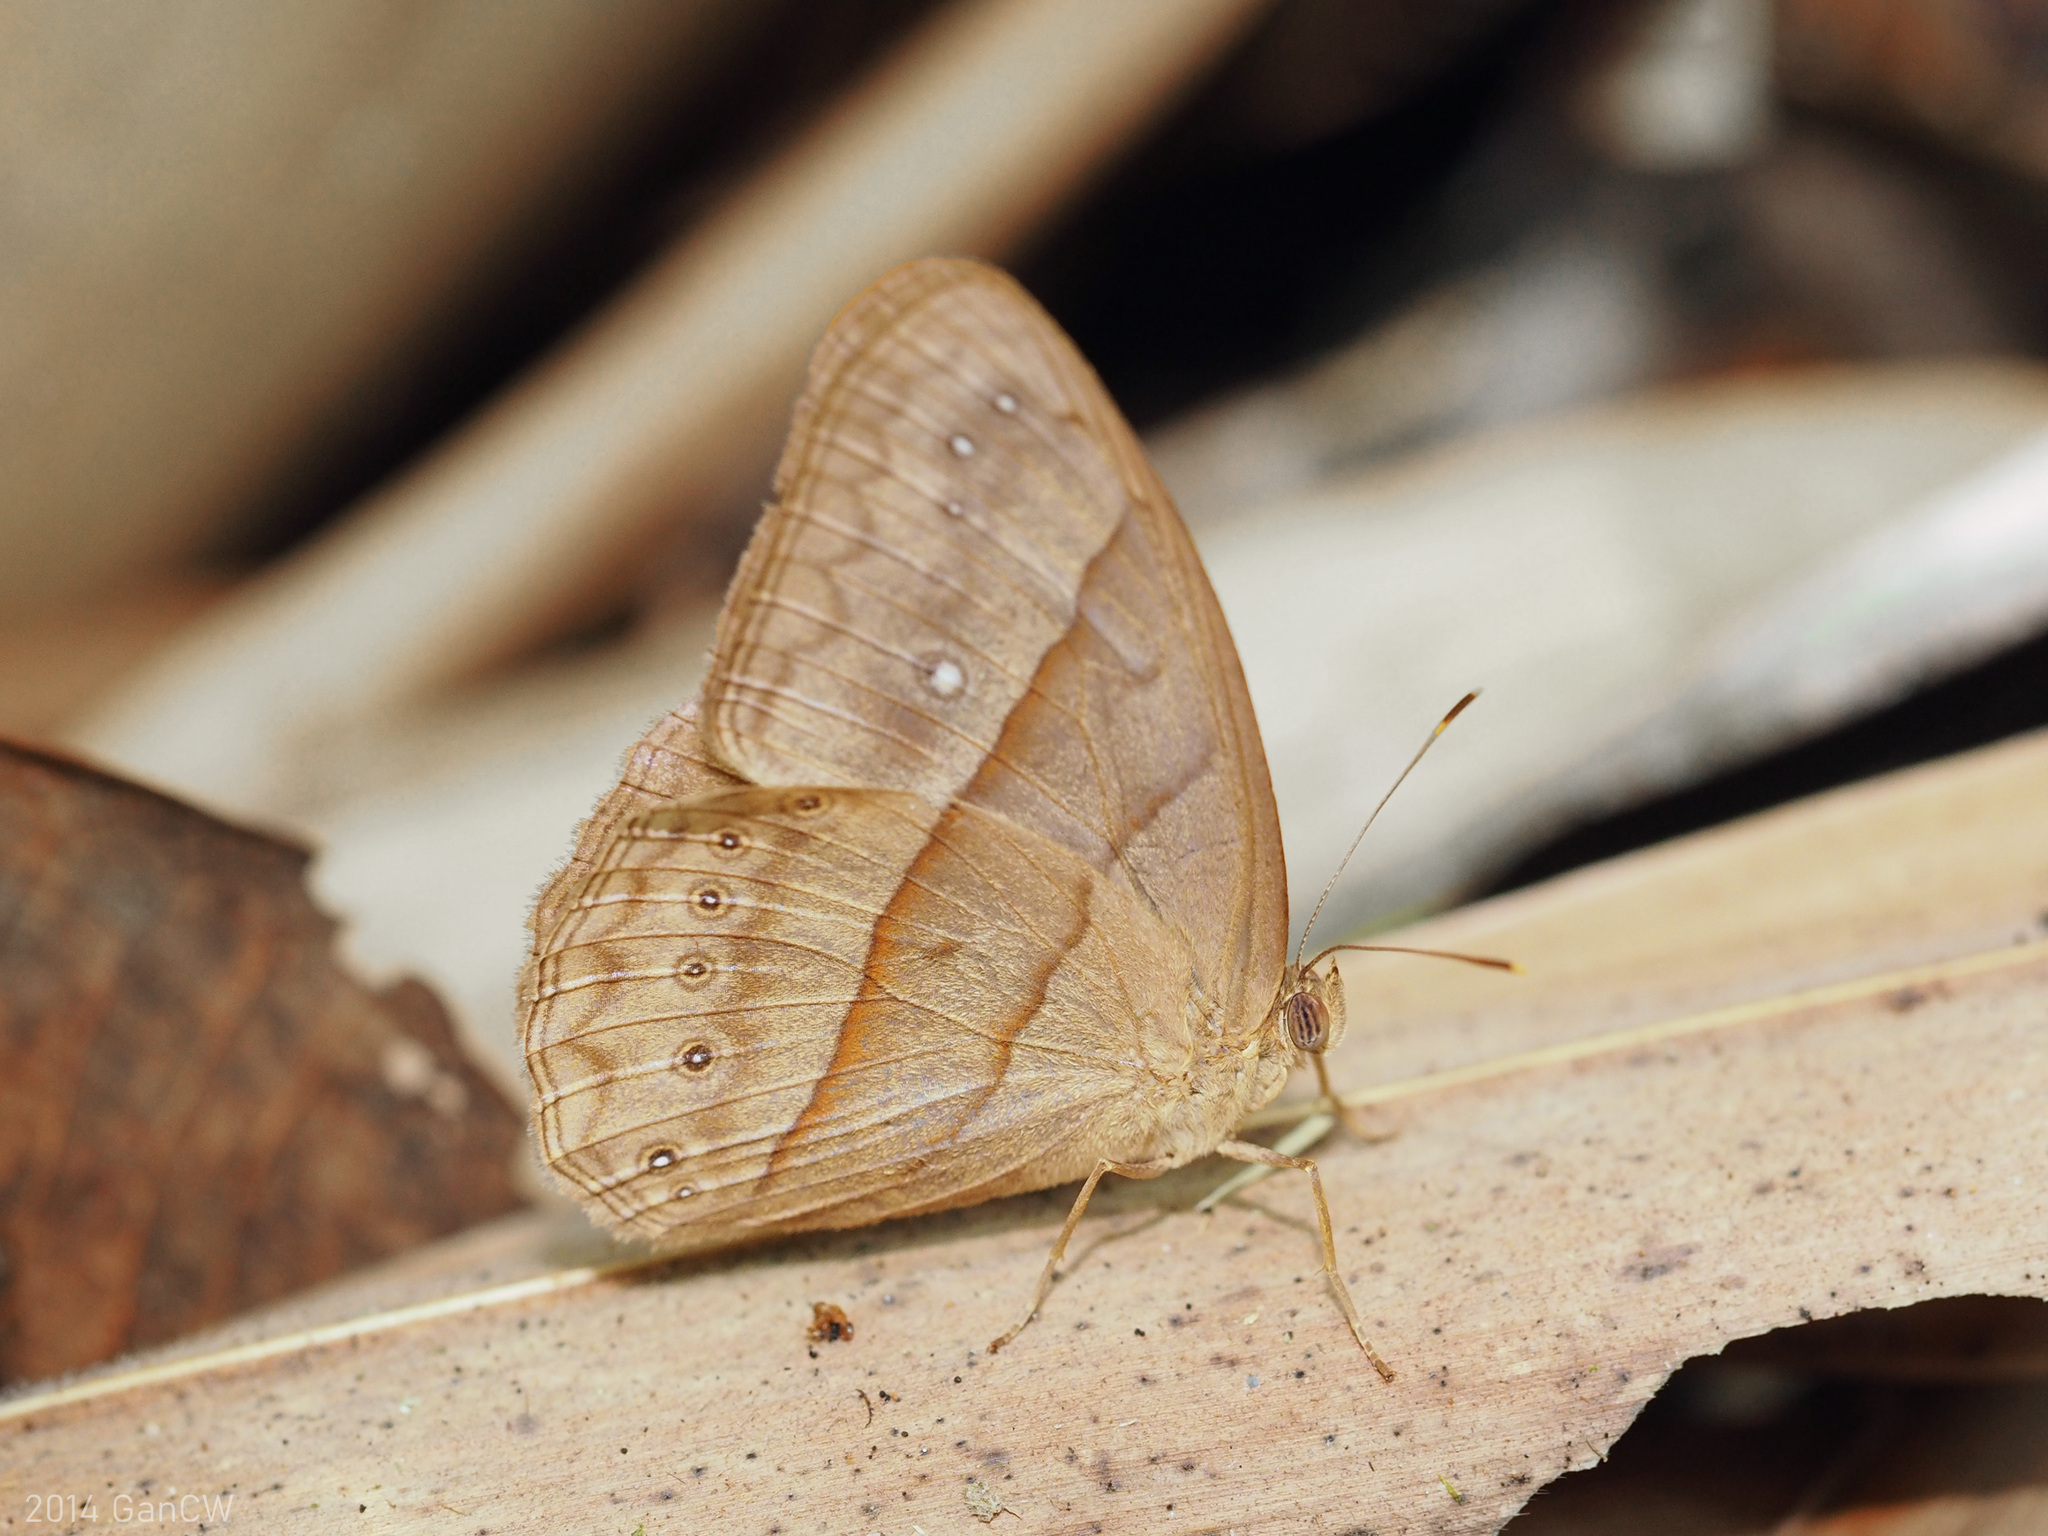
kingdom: Animalia
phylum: Arthropoda
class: Insecta
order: Lepidoptera
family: Nymphalidae
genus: Mycalesis
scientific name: Mycalesis mnasicles
